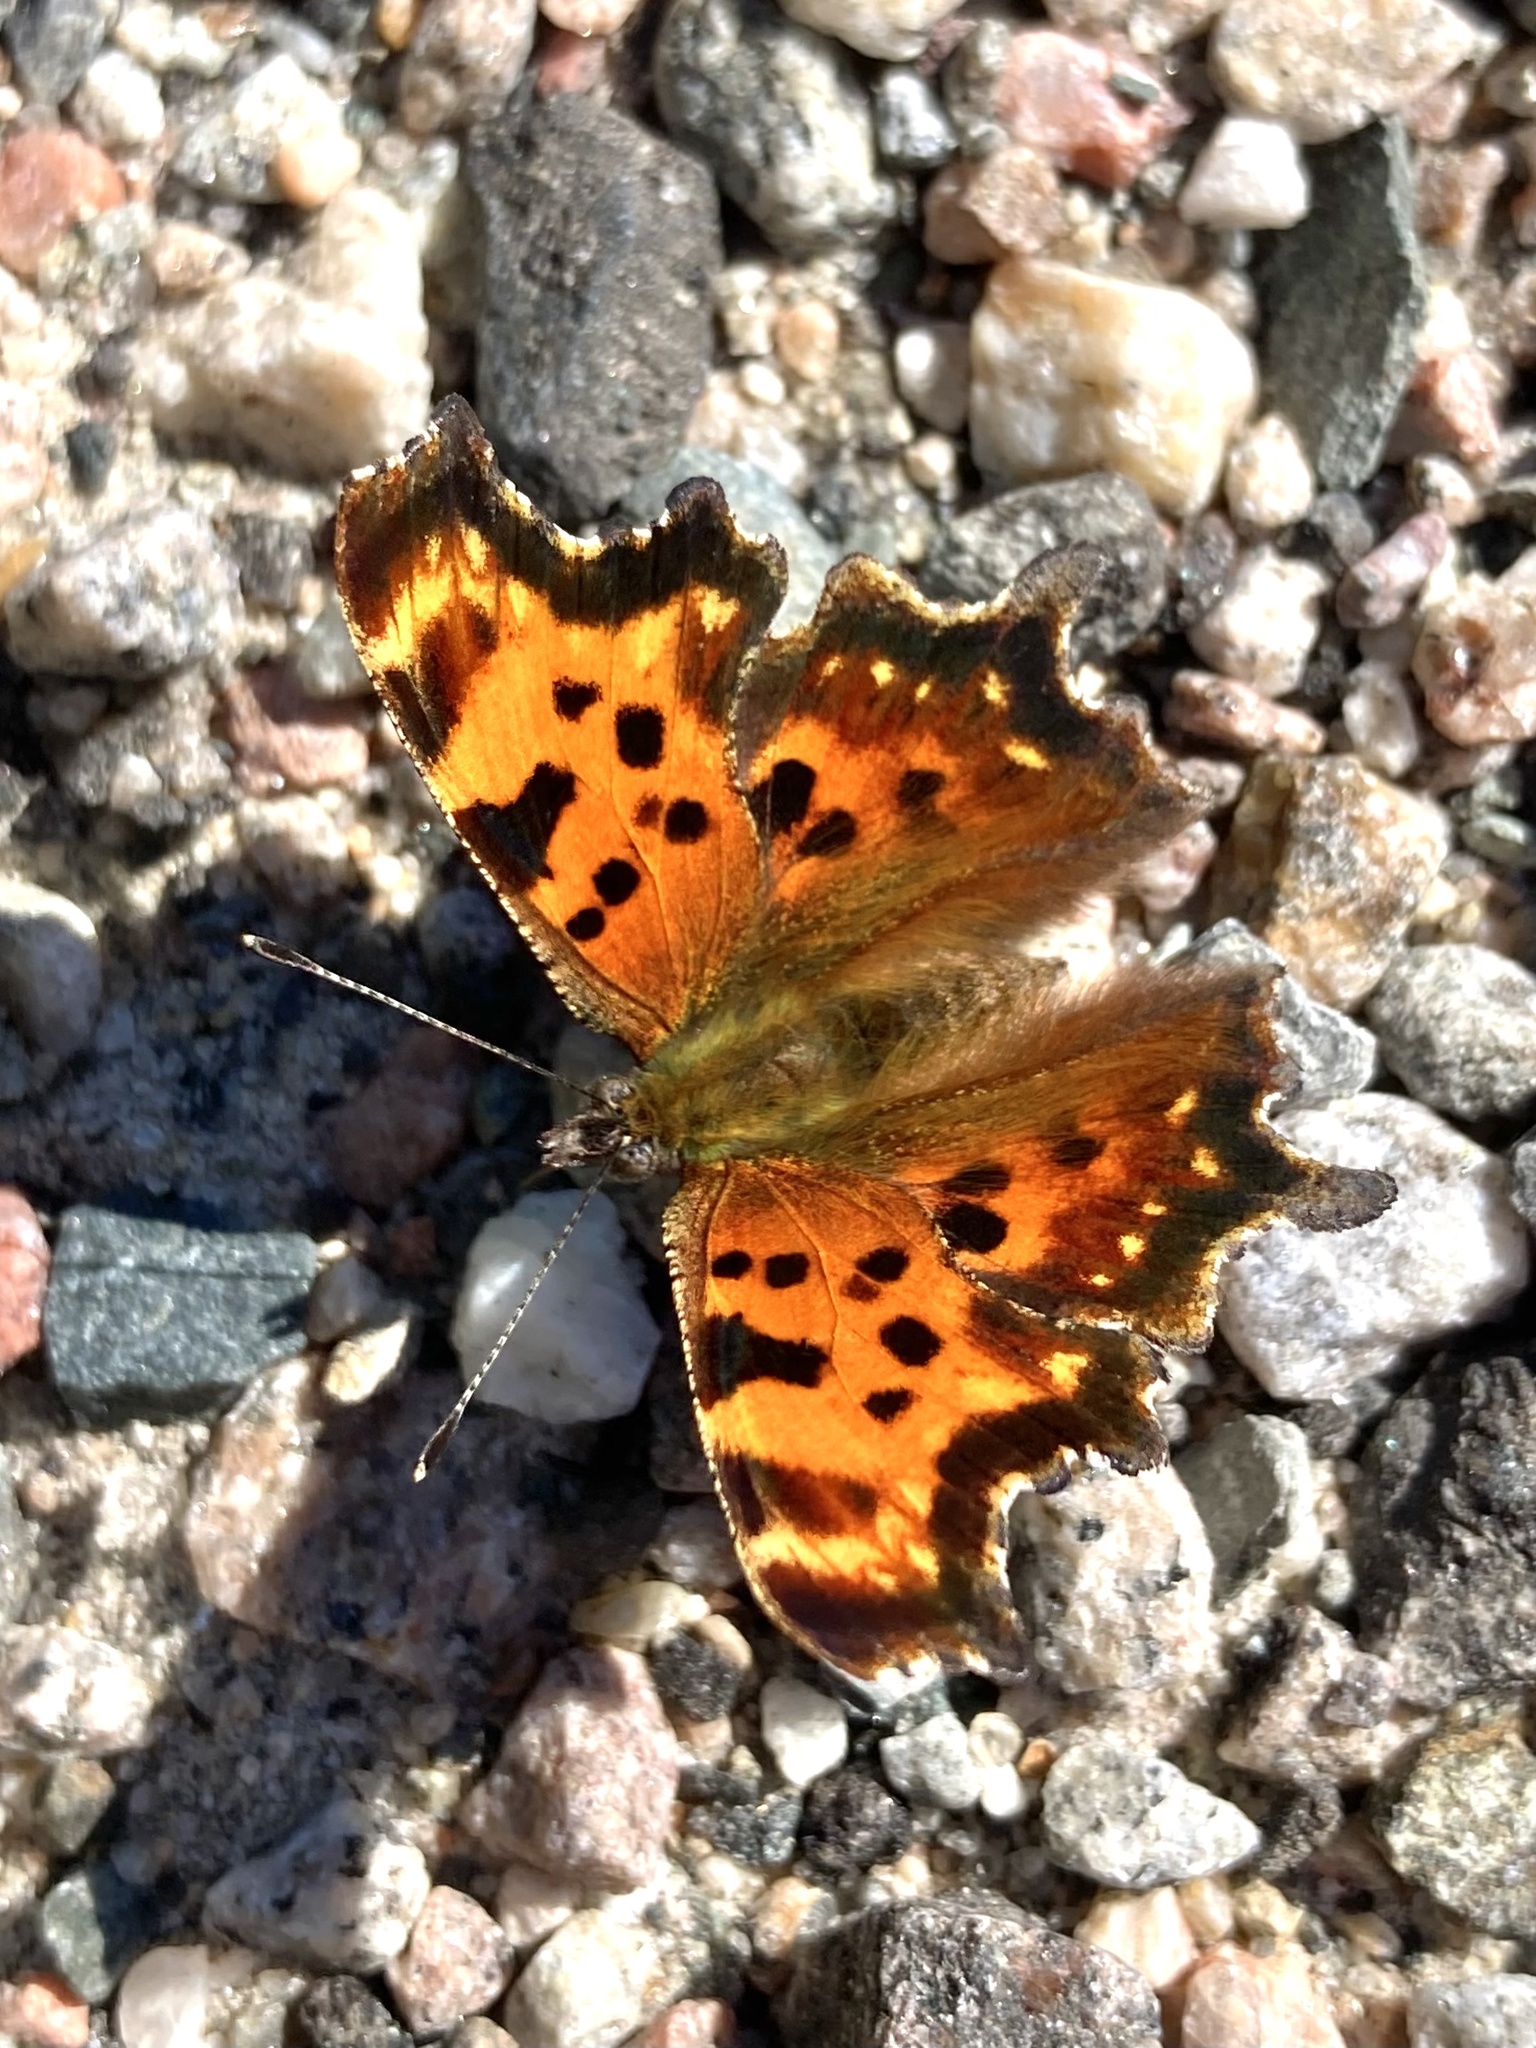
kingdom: Animalia
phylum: Arthropoda
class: Insecta
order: Lepidoptera
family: Nymphalidae
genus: Polygonia
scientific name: Polygonia faunus
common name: Green comma
